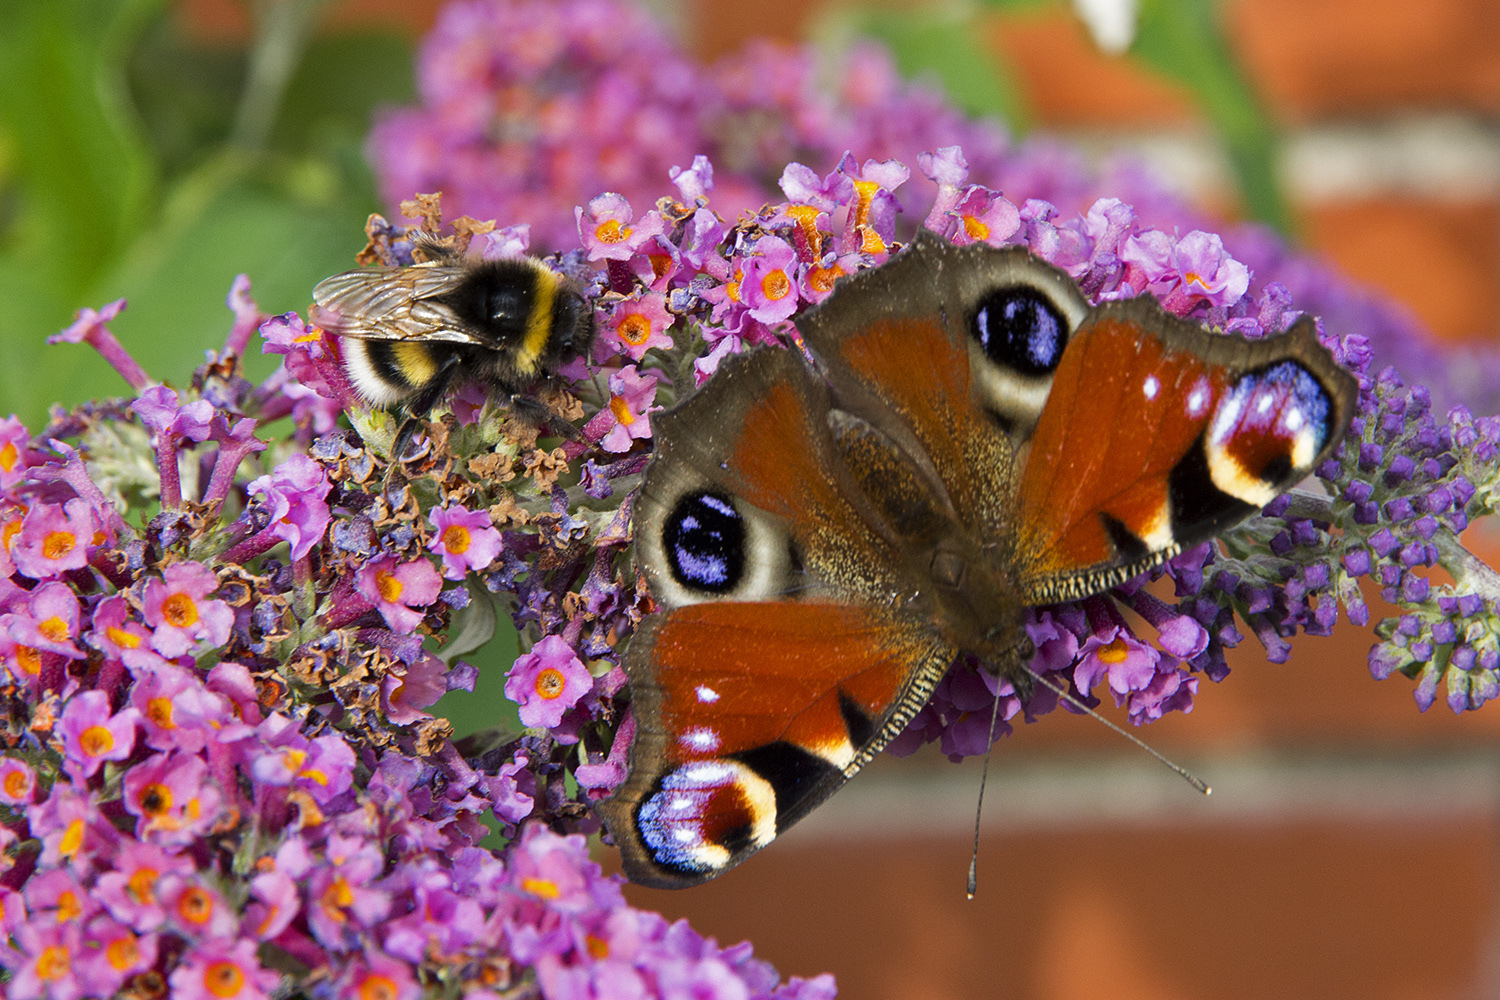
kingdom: Animalia
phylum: Arthropoda
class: Insecta
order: Lepidoptera
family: Nymphalidae
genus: Aglais
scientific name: Aglais io
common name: Peacock
